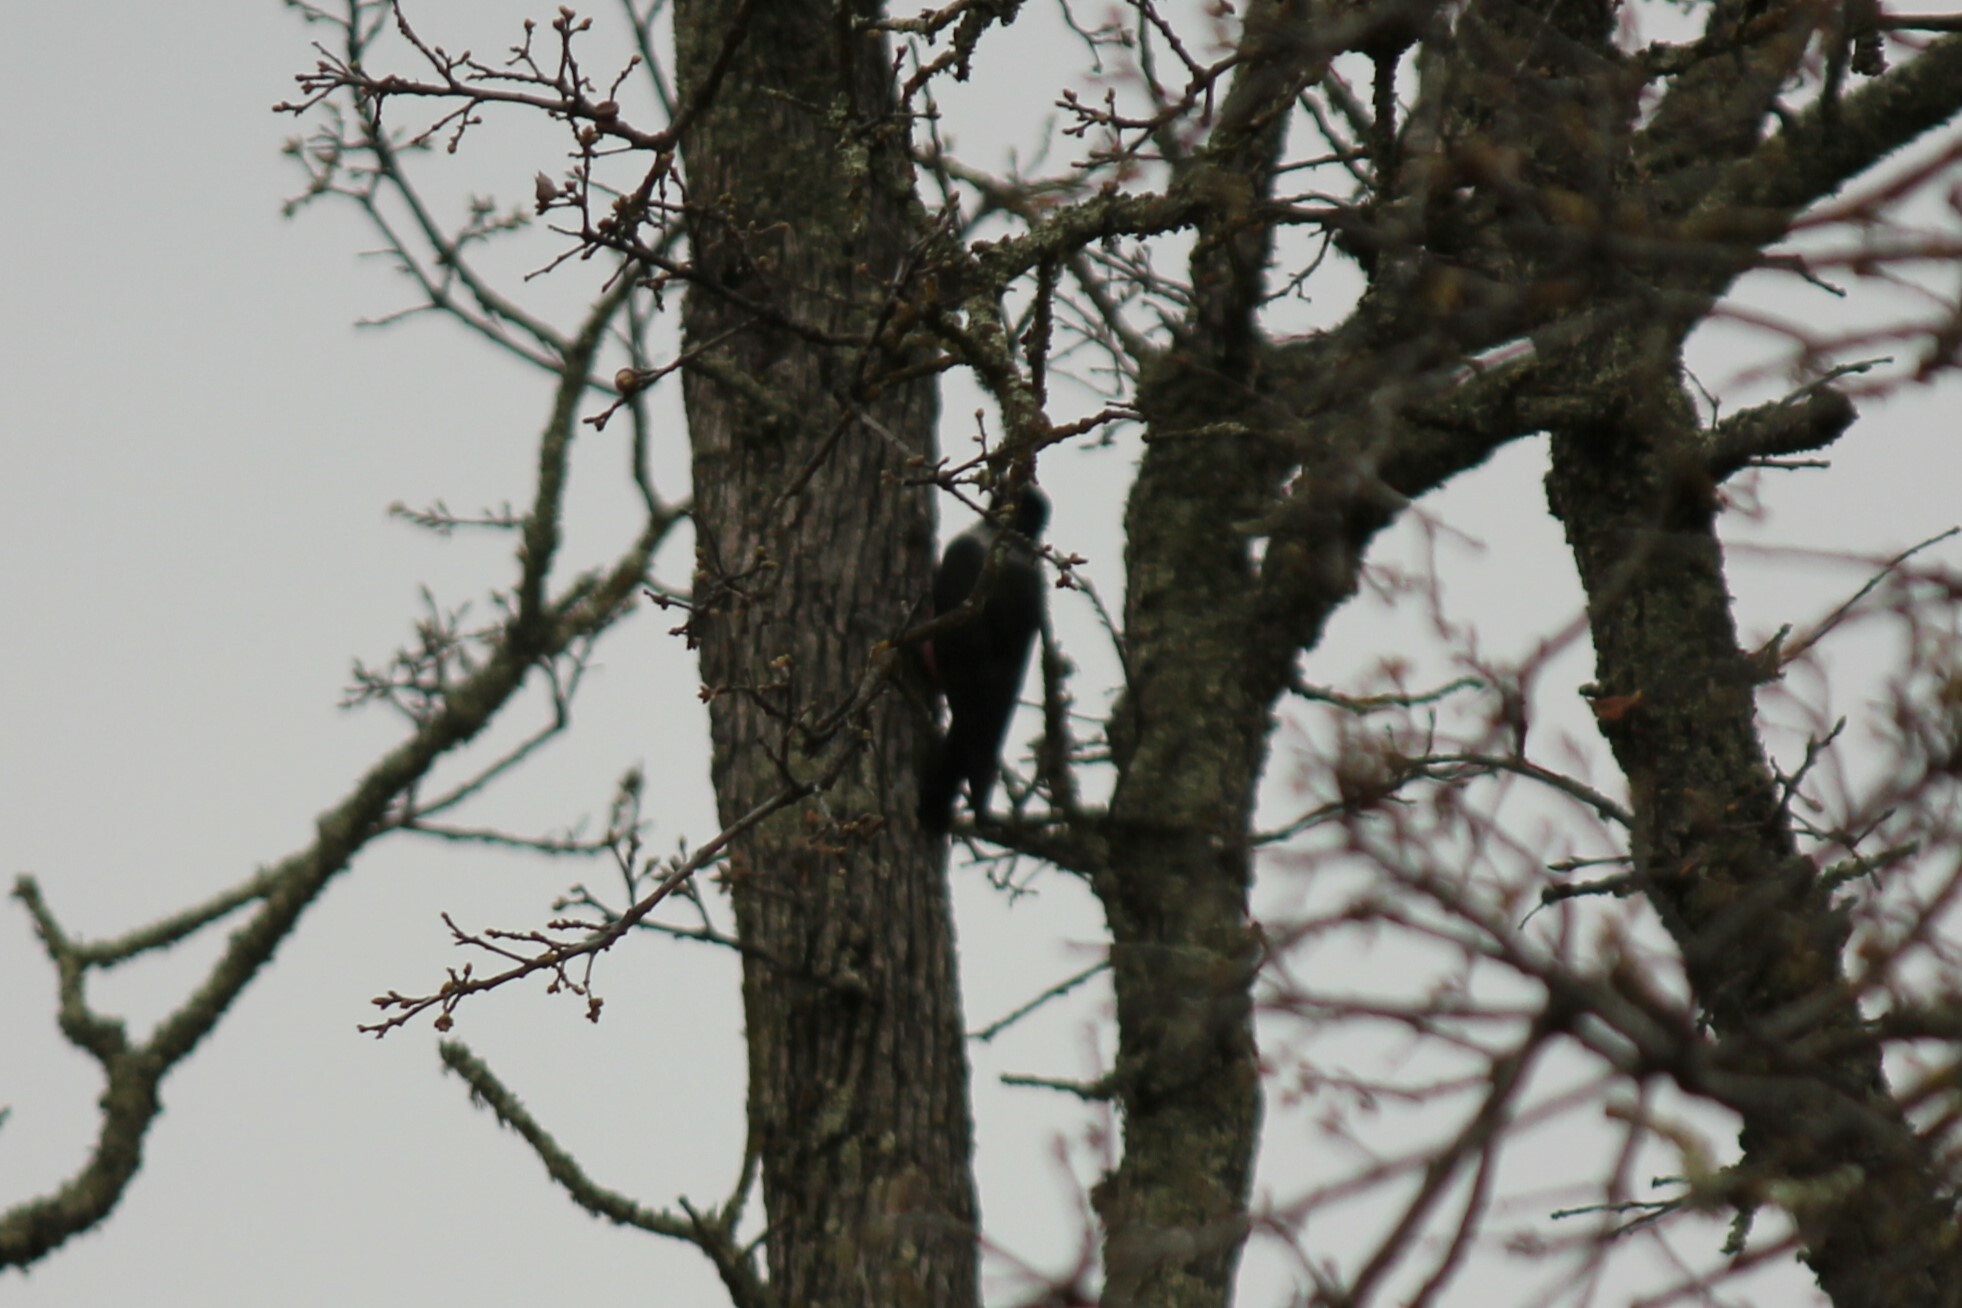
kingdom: Animalia
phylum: Chordata
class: Aves
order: Piciformes
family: Picidae
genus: Melanerpes
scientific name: Melanerpes lewis
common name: Lewis's woodpecker
